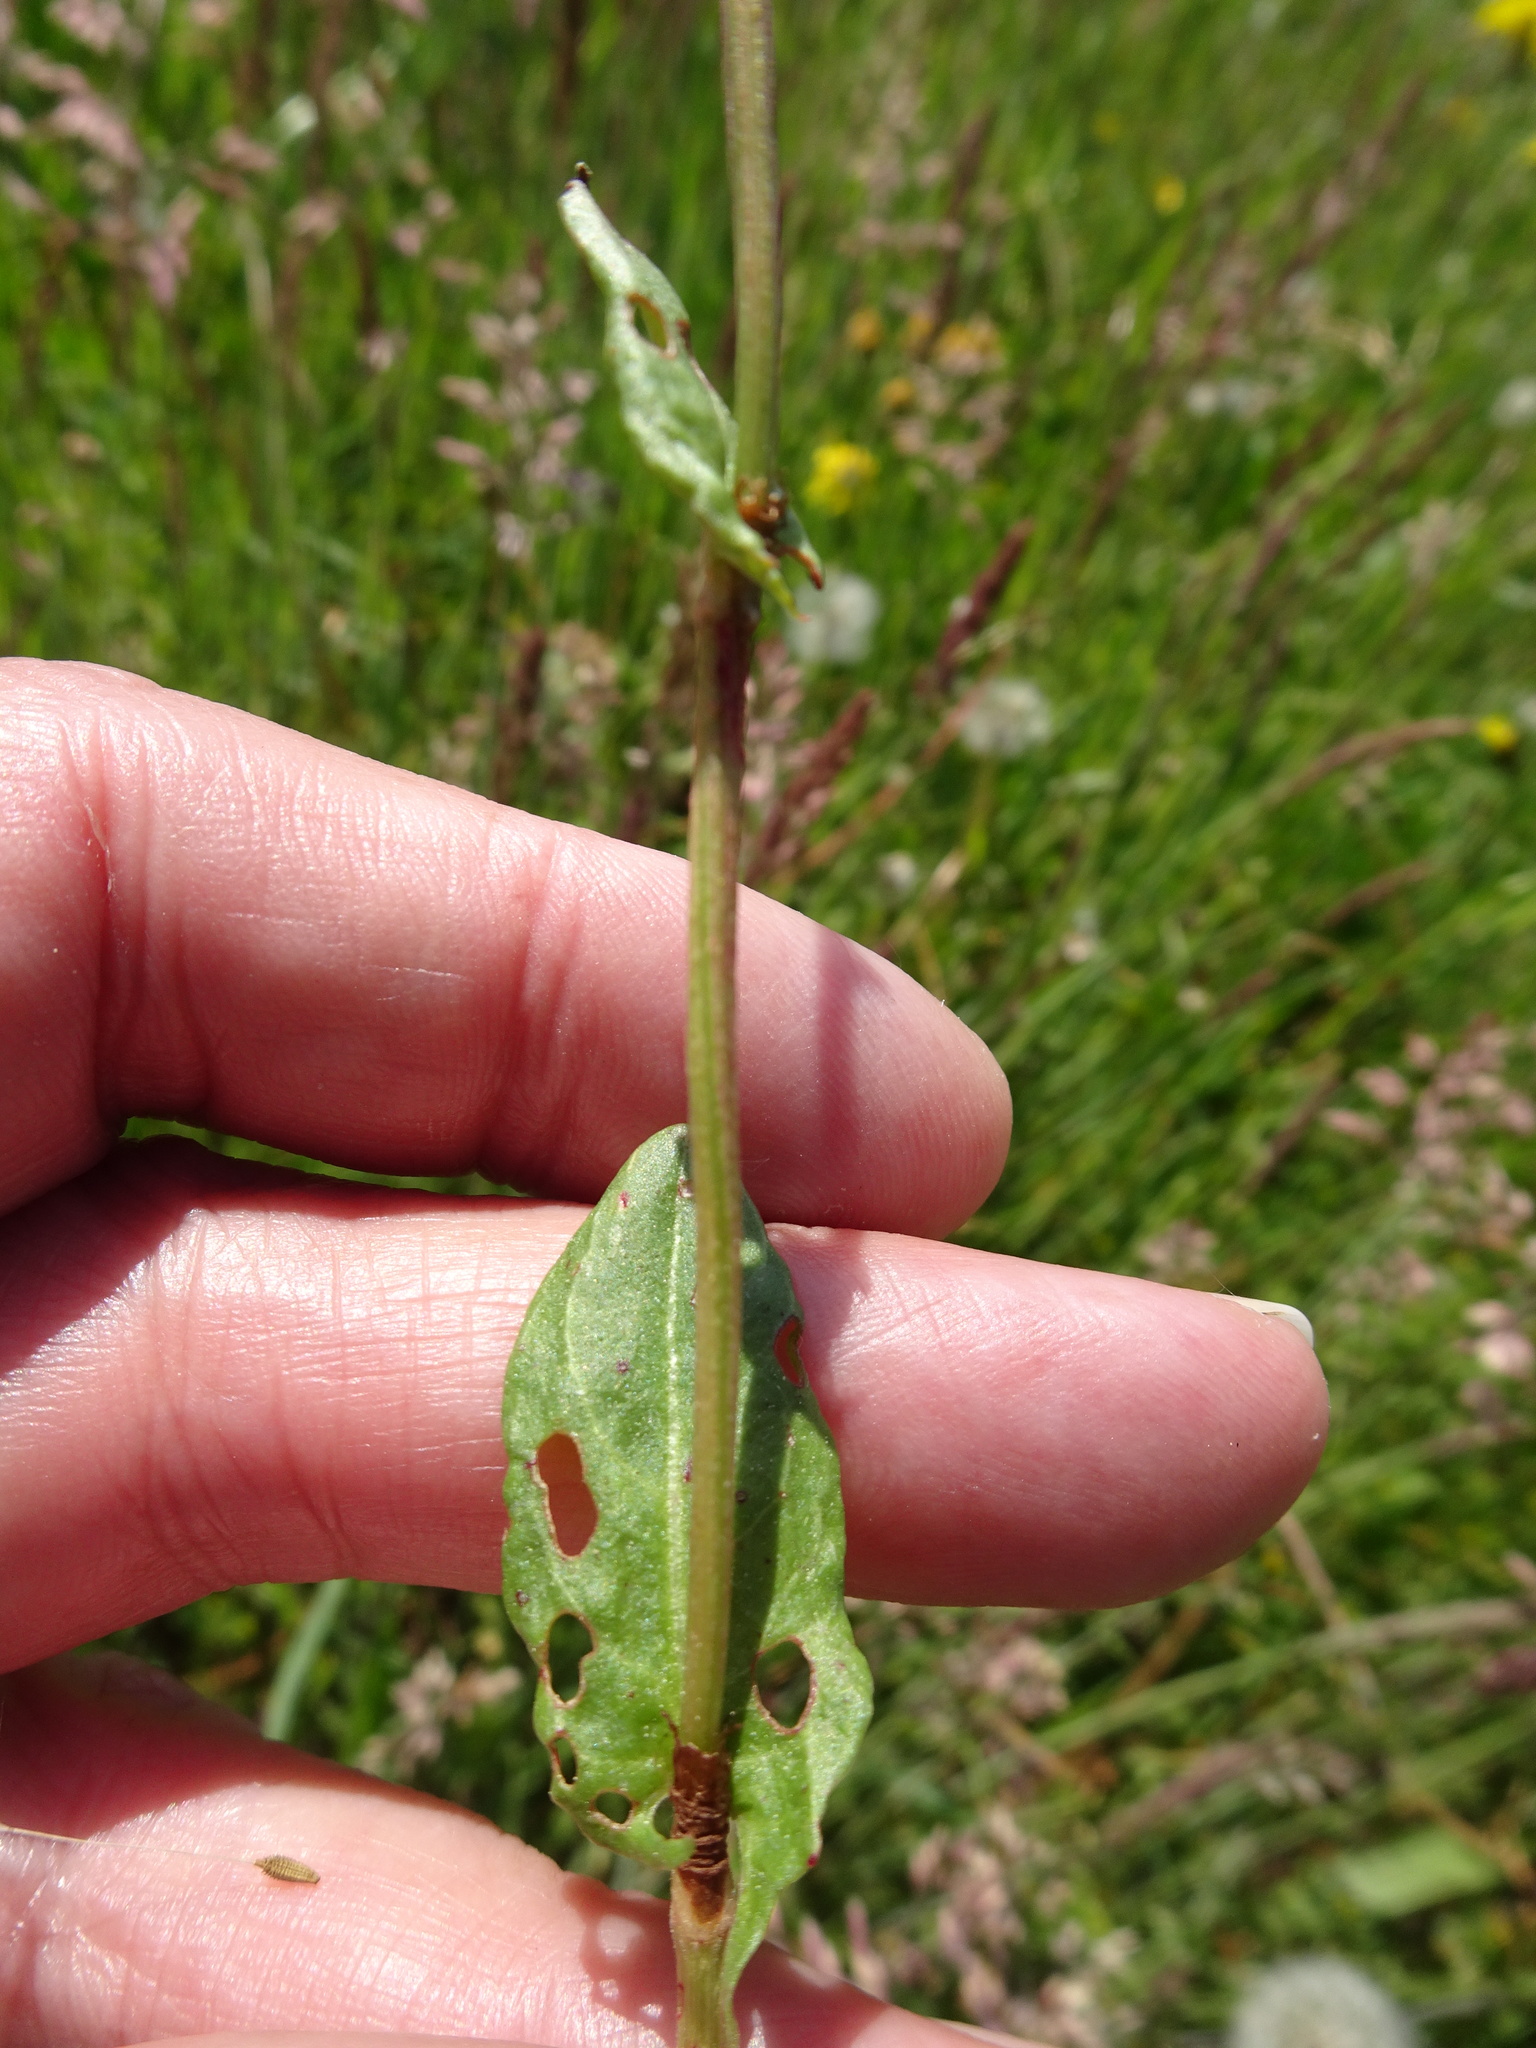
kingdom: Plantae
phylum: Tracheophyta
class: Magnoliopsida
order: Caryophyllales
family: Polygonaceae
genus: Rumex
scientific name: Rumex acetosa
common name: Garden sorrel
